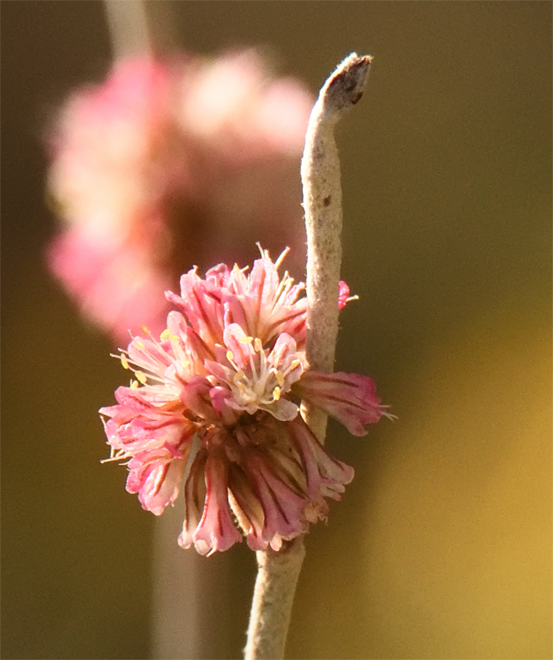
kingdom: Plantae
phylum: Tracheophyta
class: Magnoliopsida
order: Caryophyllales
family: Polygonaceae
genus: Eriogonum
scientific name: Eriogonum elongatum
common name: Long-stem wild buckwheat
